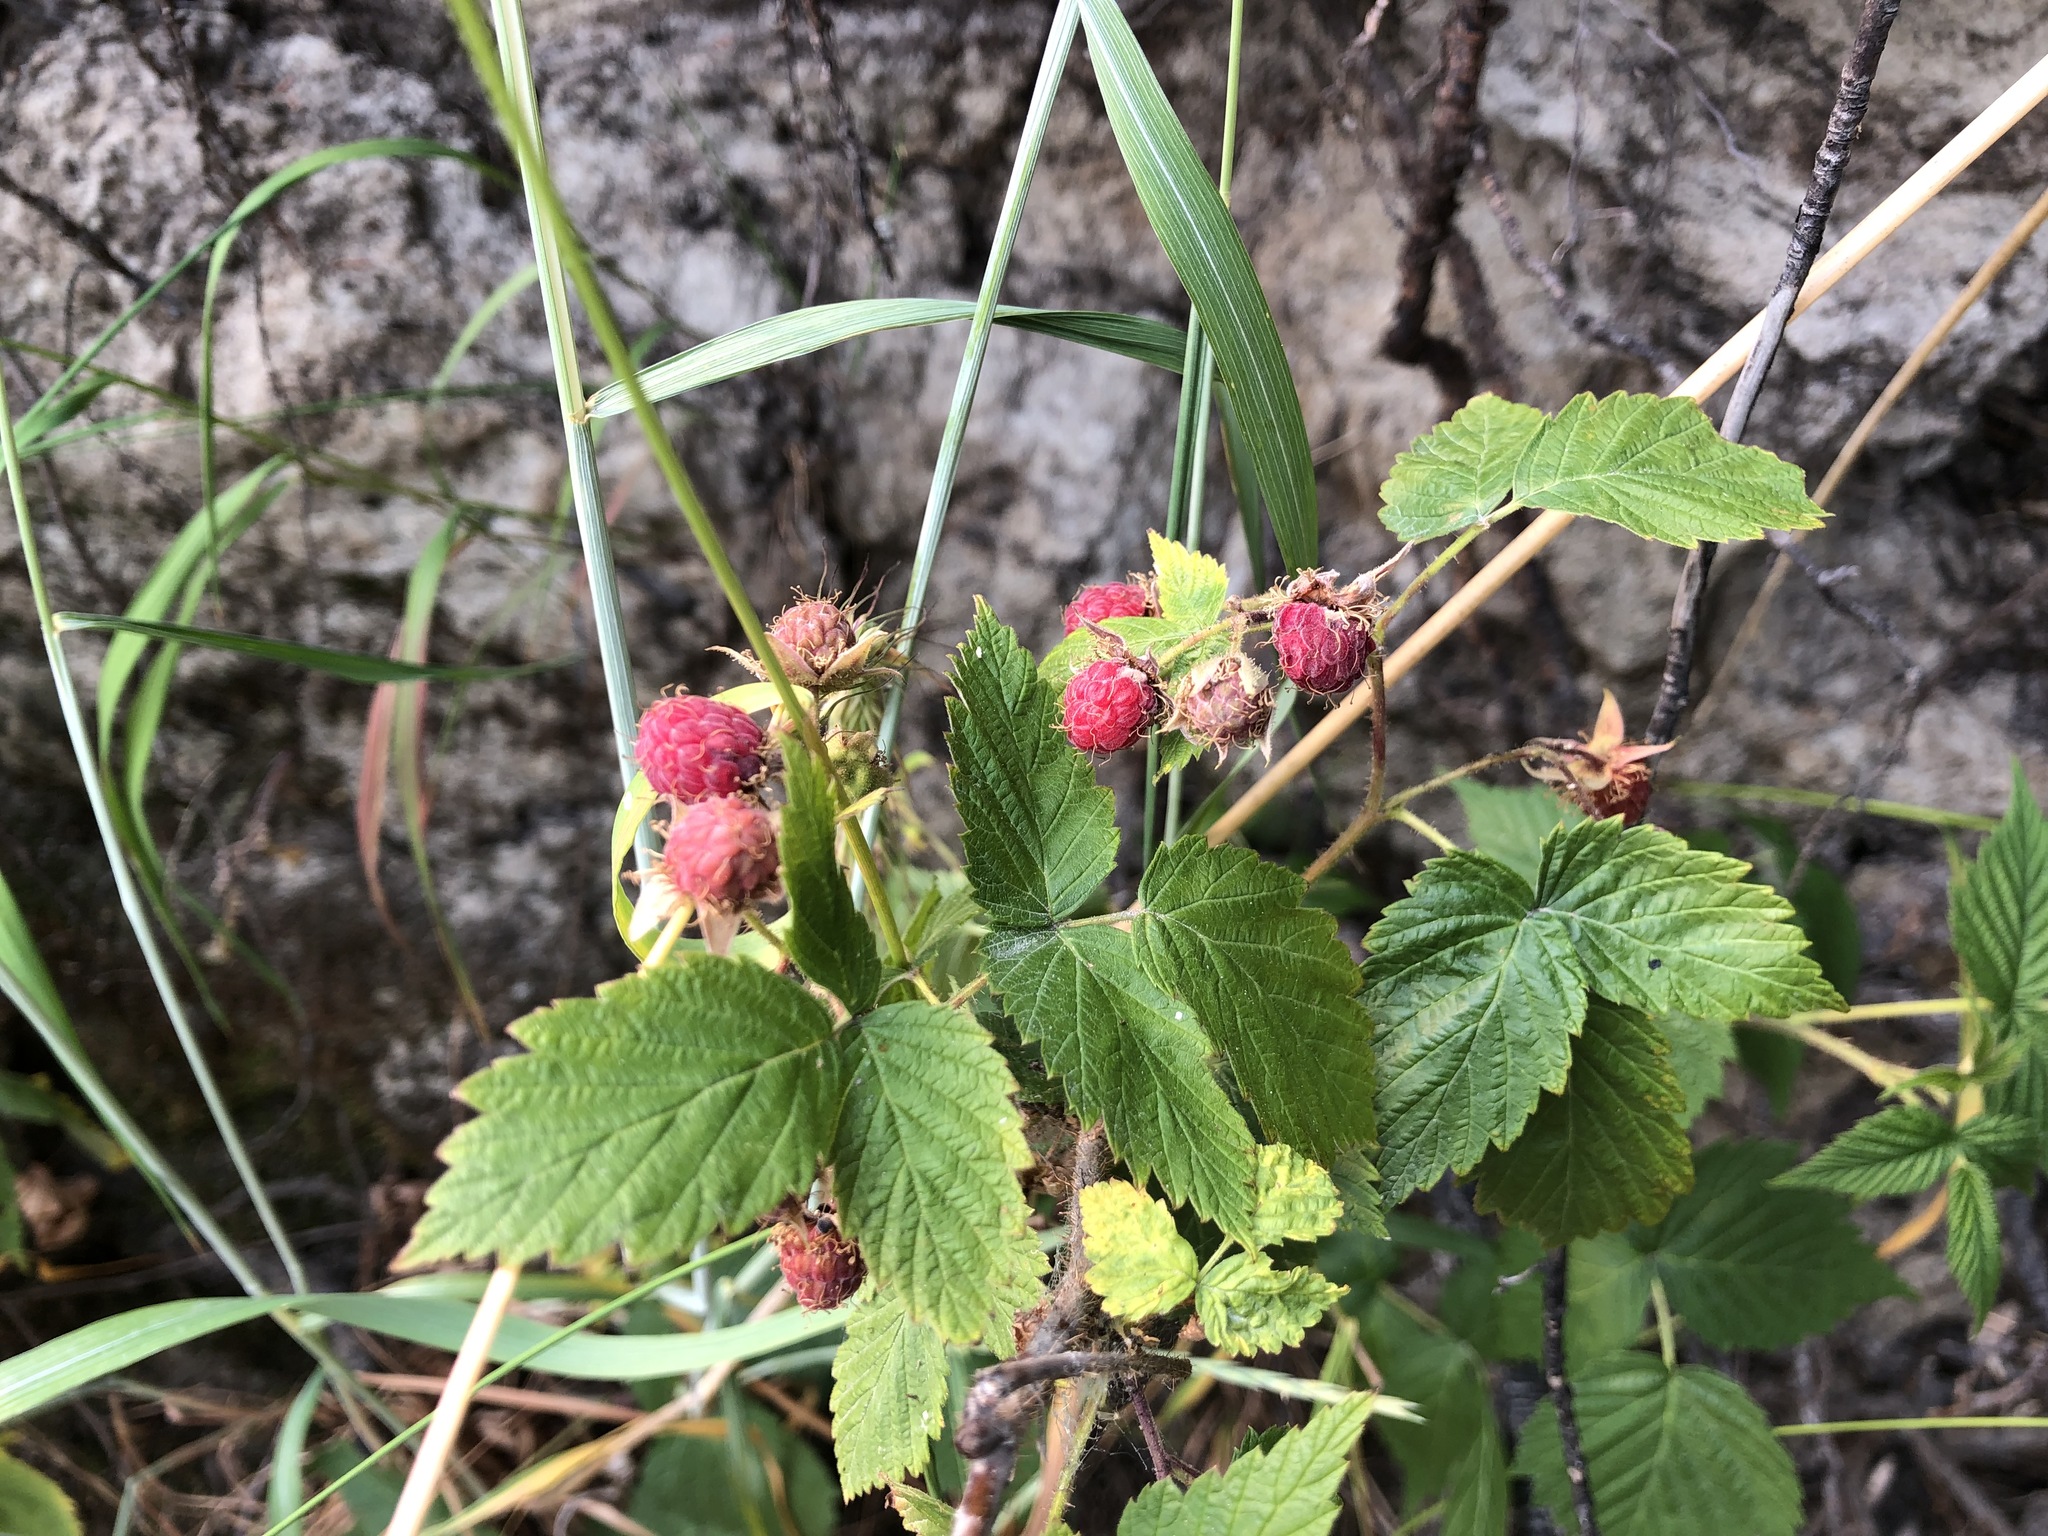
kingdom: Plantae
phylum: Tracheophyta
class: Magnoliopsida
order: Rosales
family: Rosaceae
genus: Rubus
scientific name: Rubus idaeus
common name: Raspberry
